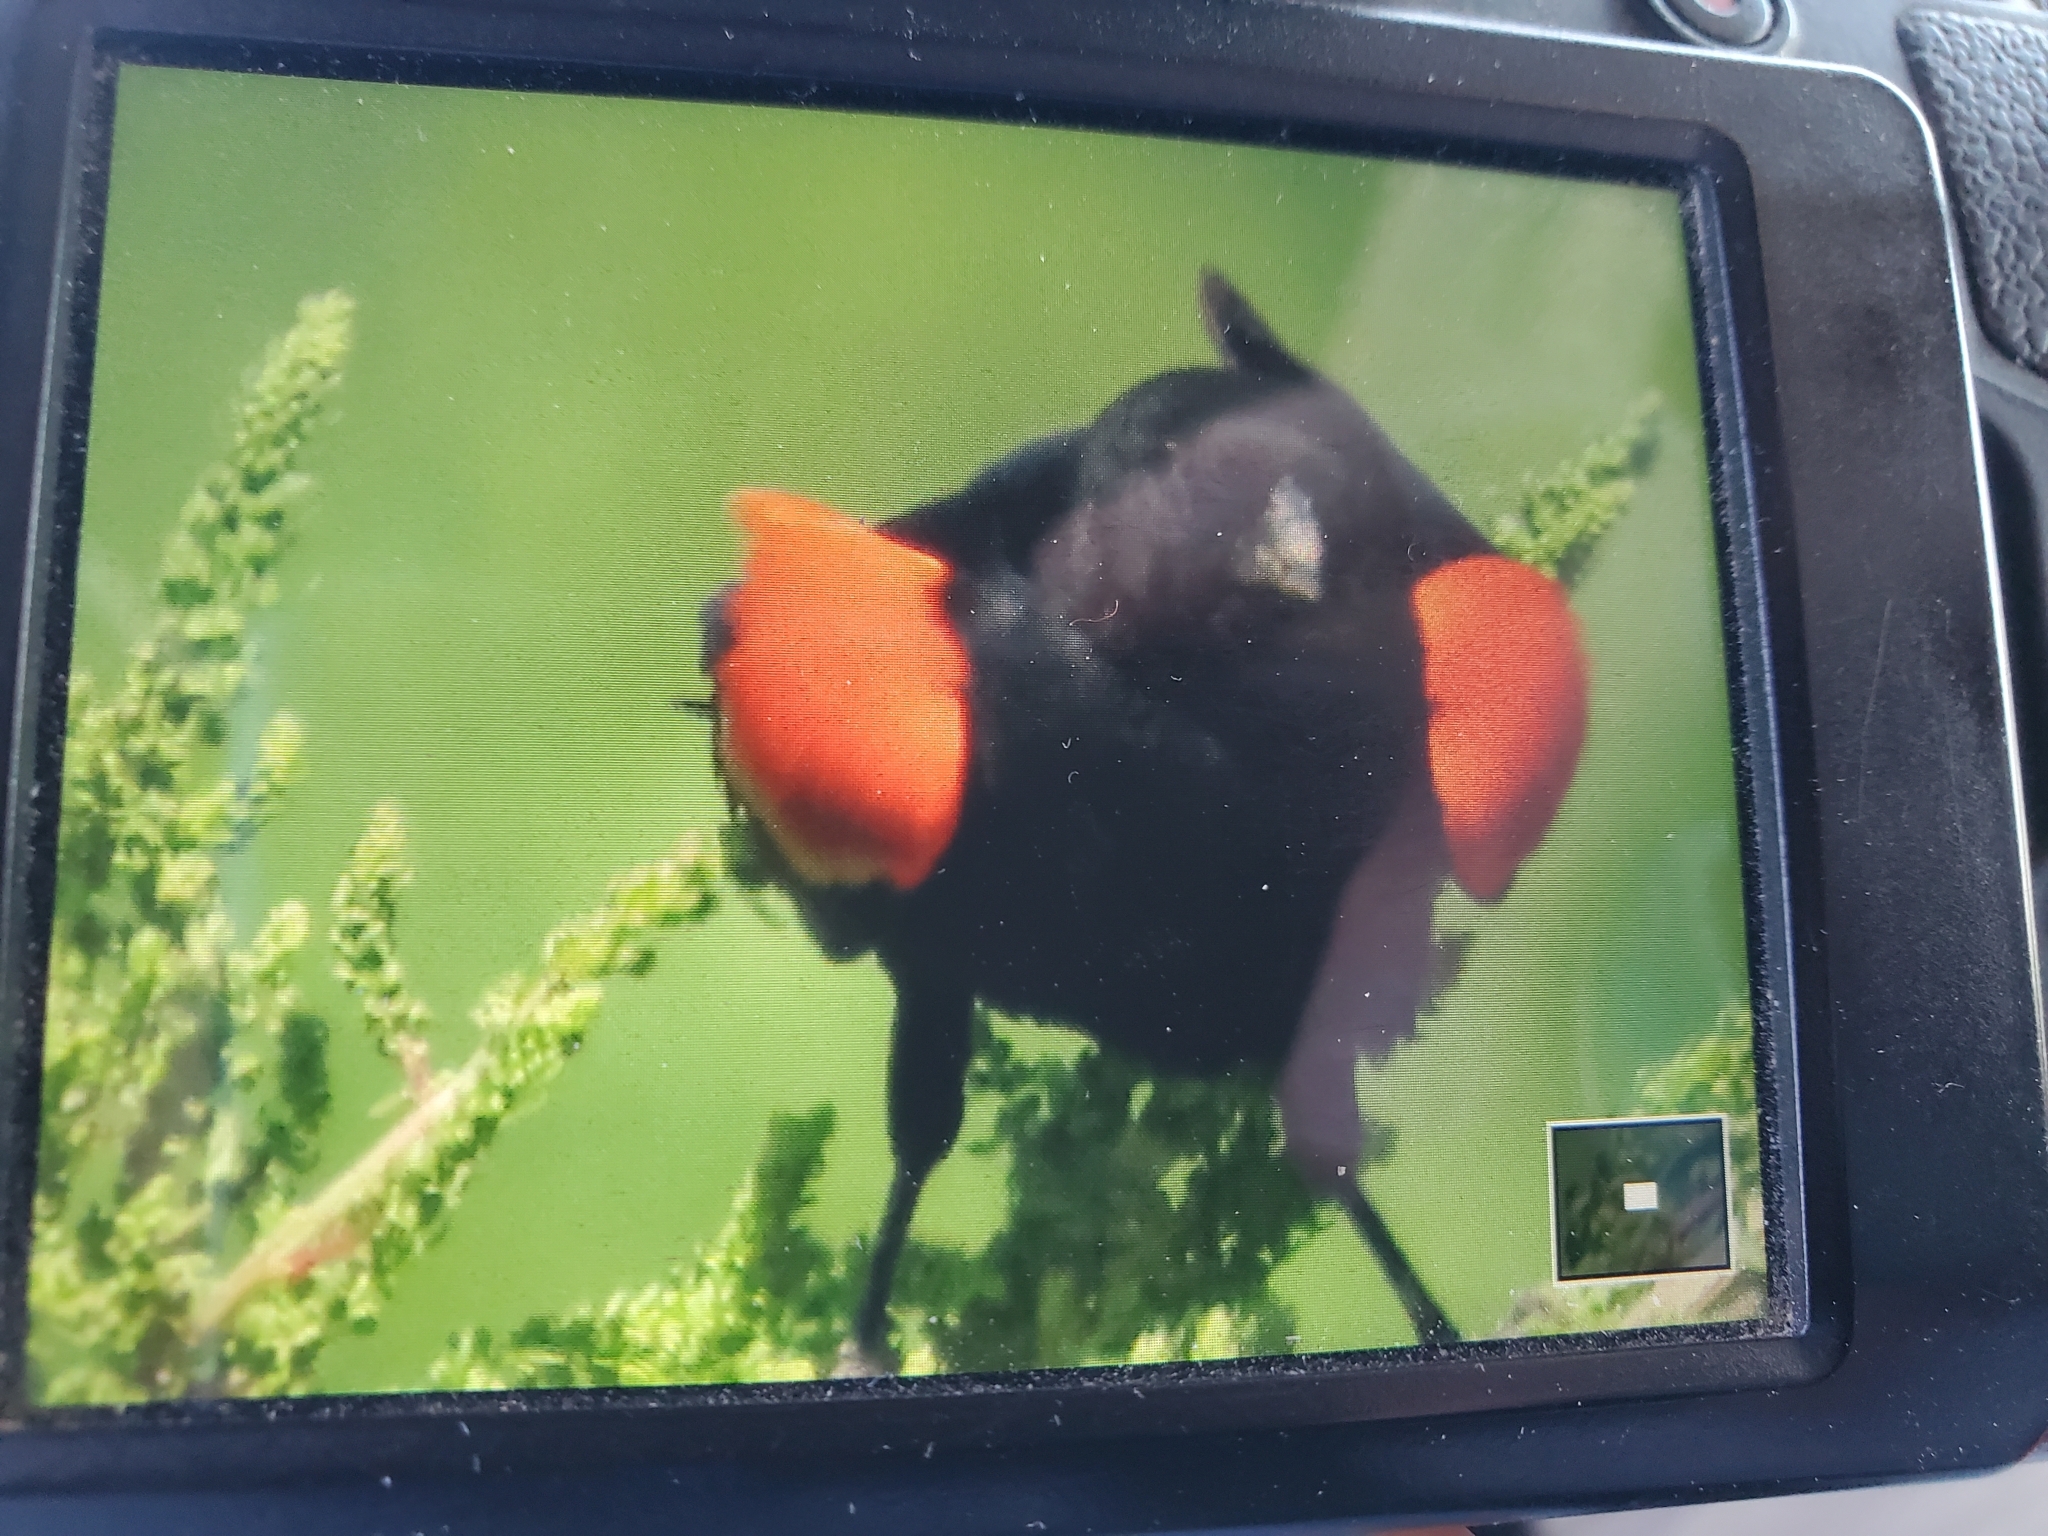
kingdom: Animalia
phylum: Chordata
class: Aves
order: Passeriformes
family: Icteridae
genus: Agelaius
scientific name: Agelaius phoeniceus
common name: Red-winged blackbird
